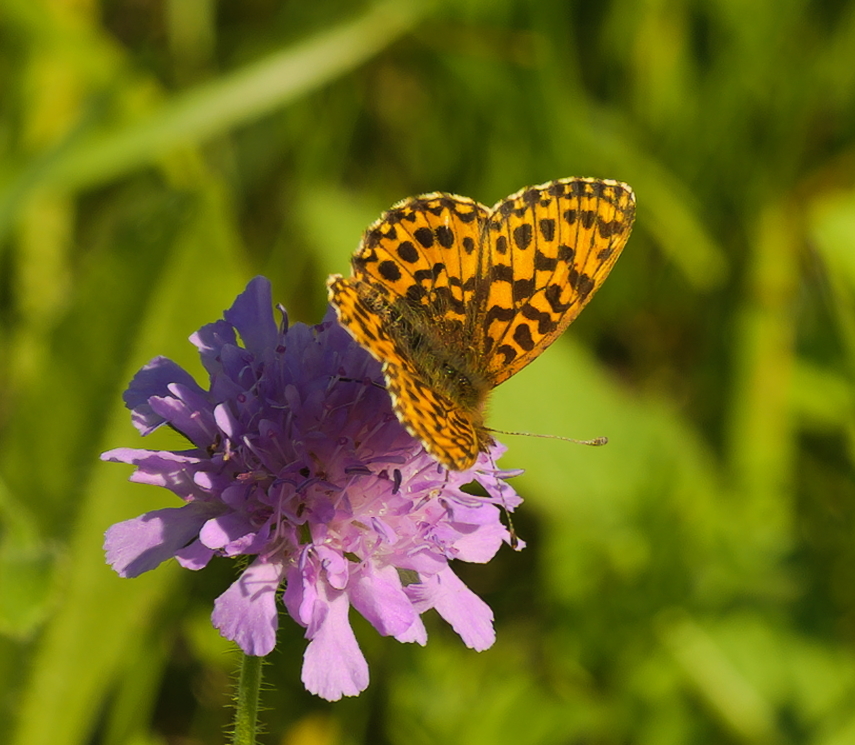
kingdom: Animalia
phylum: Arthropoda
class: Insecta
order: Lepidoptera
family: Nymphalidae
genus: Boloria
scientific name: Boloria dia
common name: Weaver's fritillary
